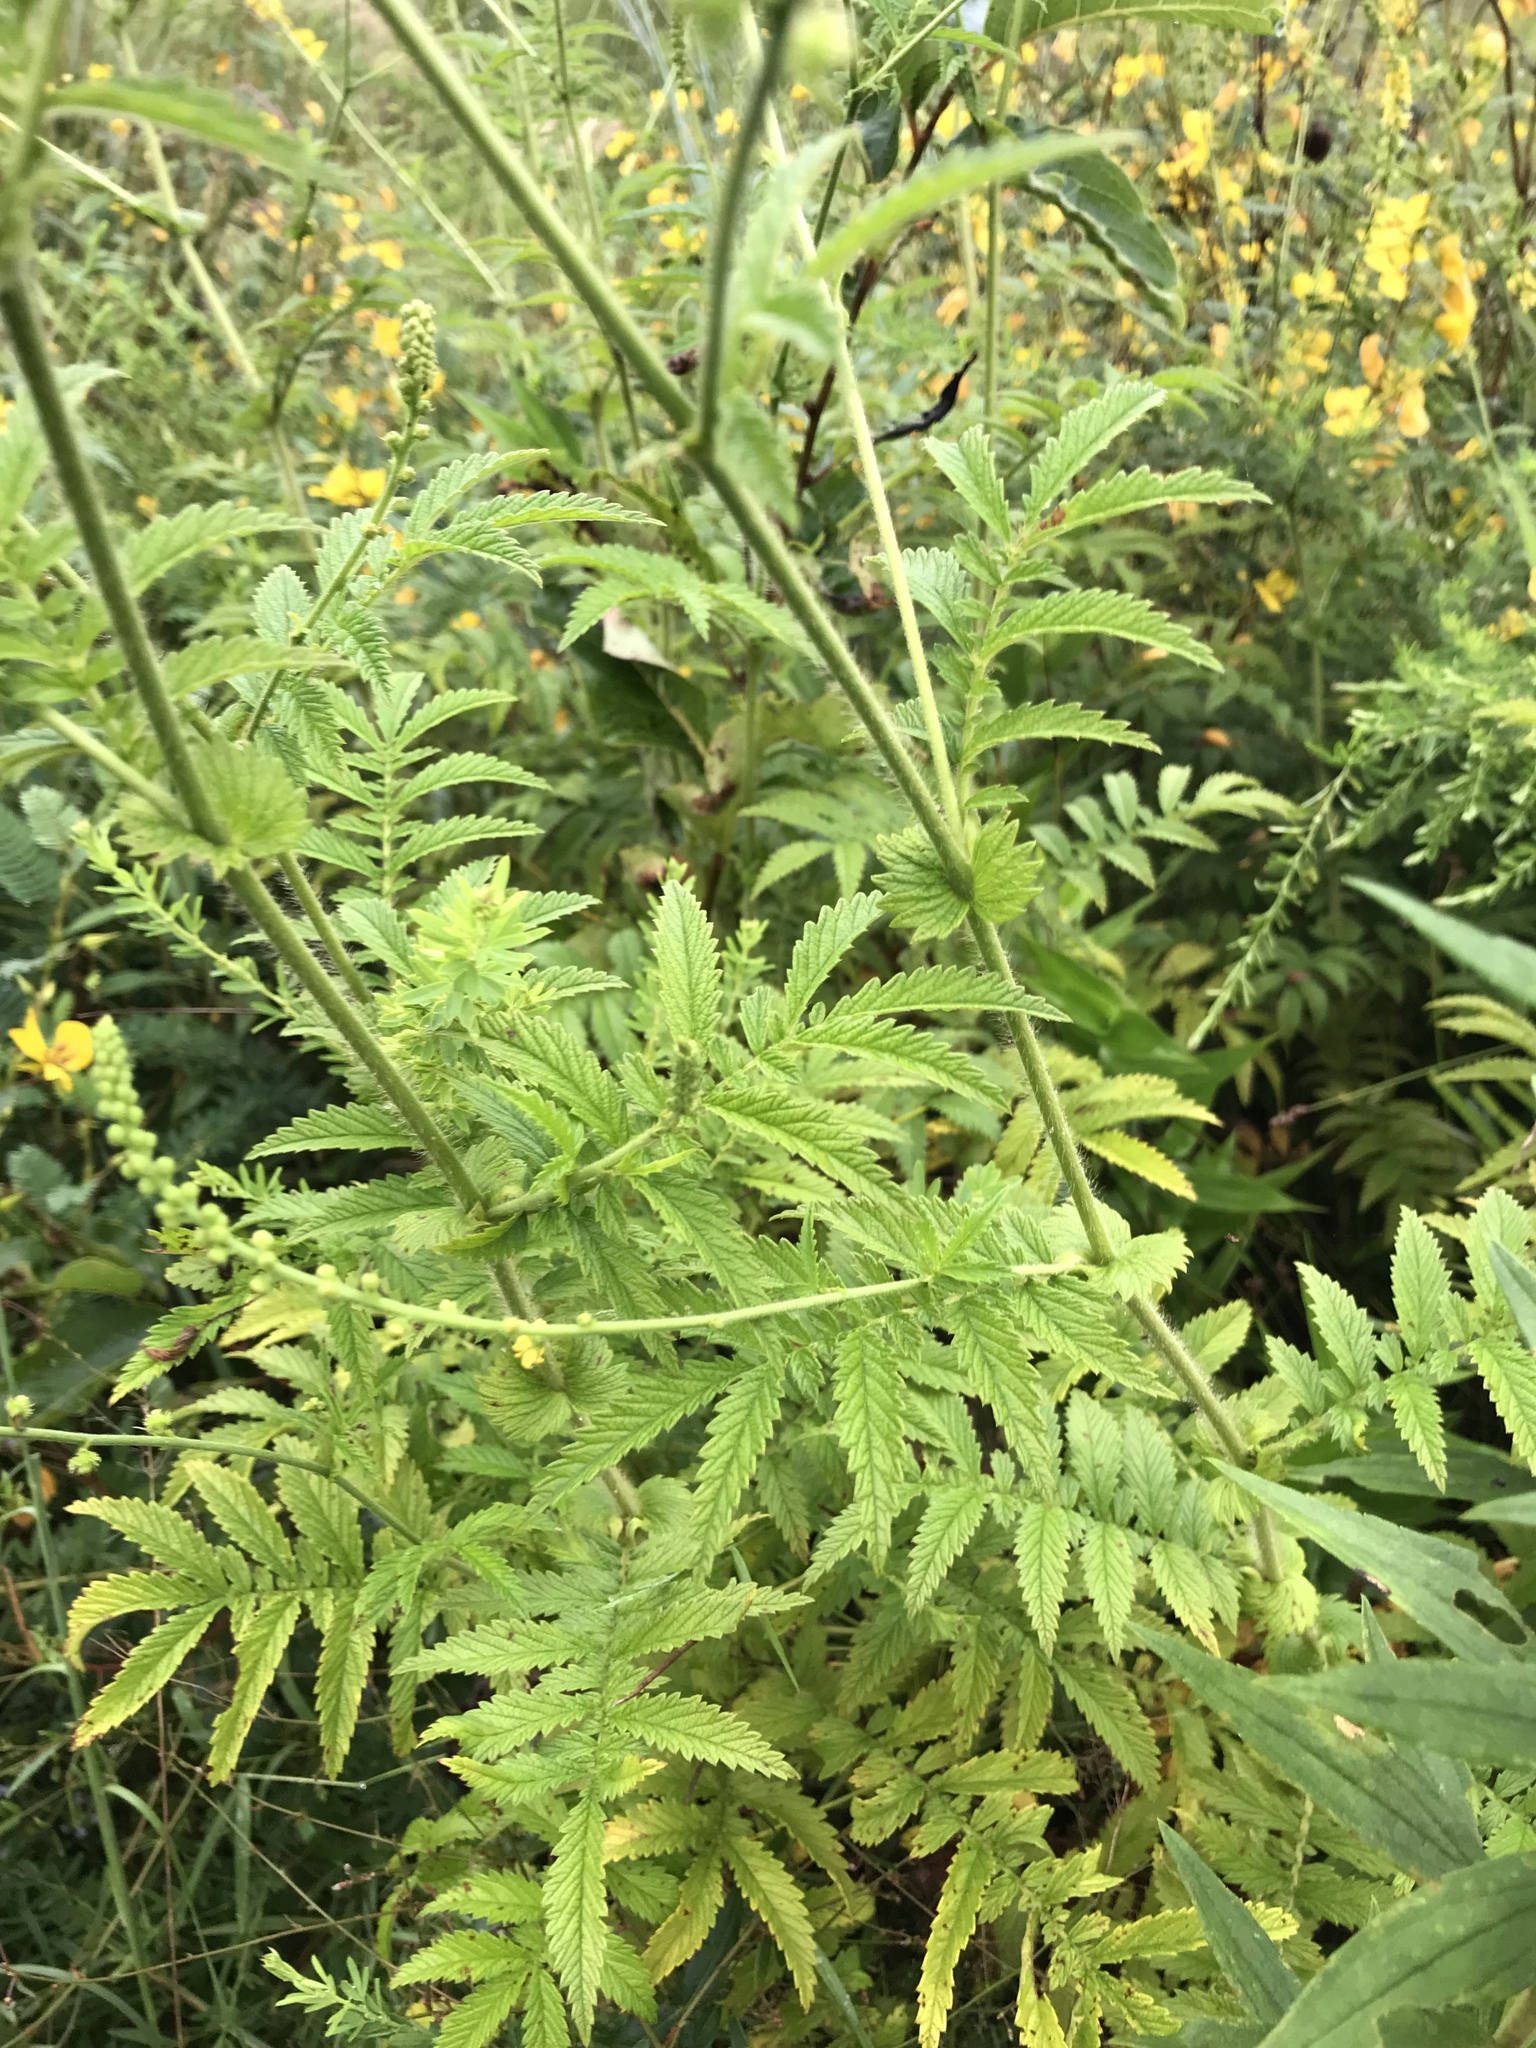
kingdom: Plantae
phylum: Tracheophyta
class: Magnoliopsida
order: Rosales
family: Rosaceae
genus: Agrimonia
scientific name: Agrimonia parviflora
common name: Harvest-lice
